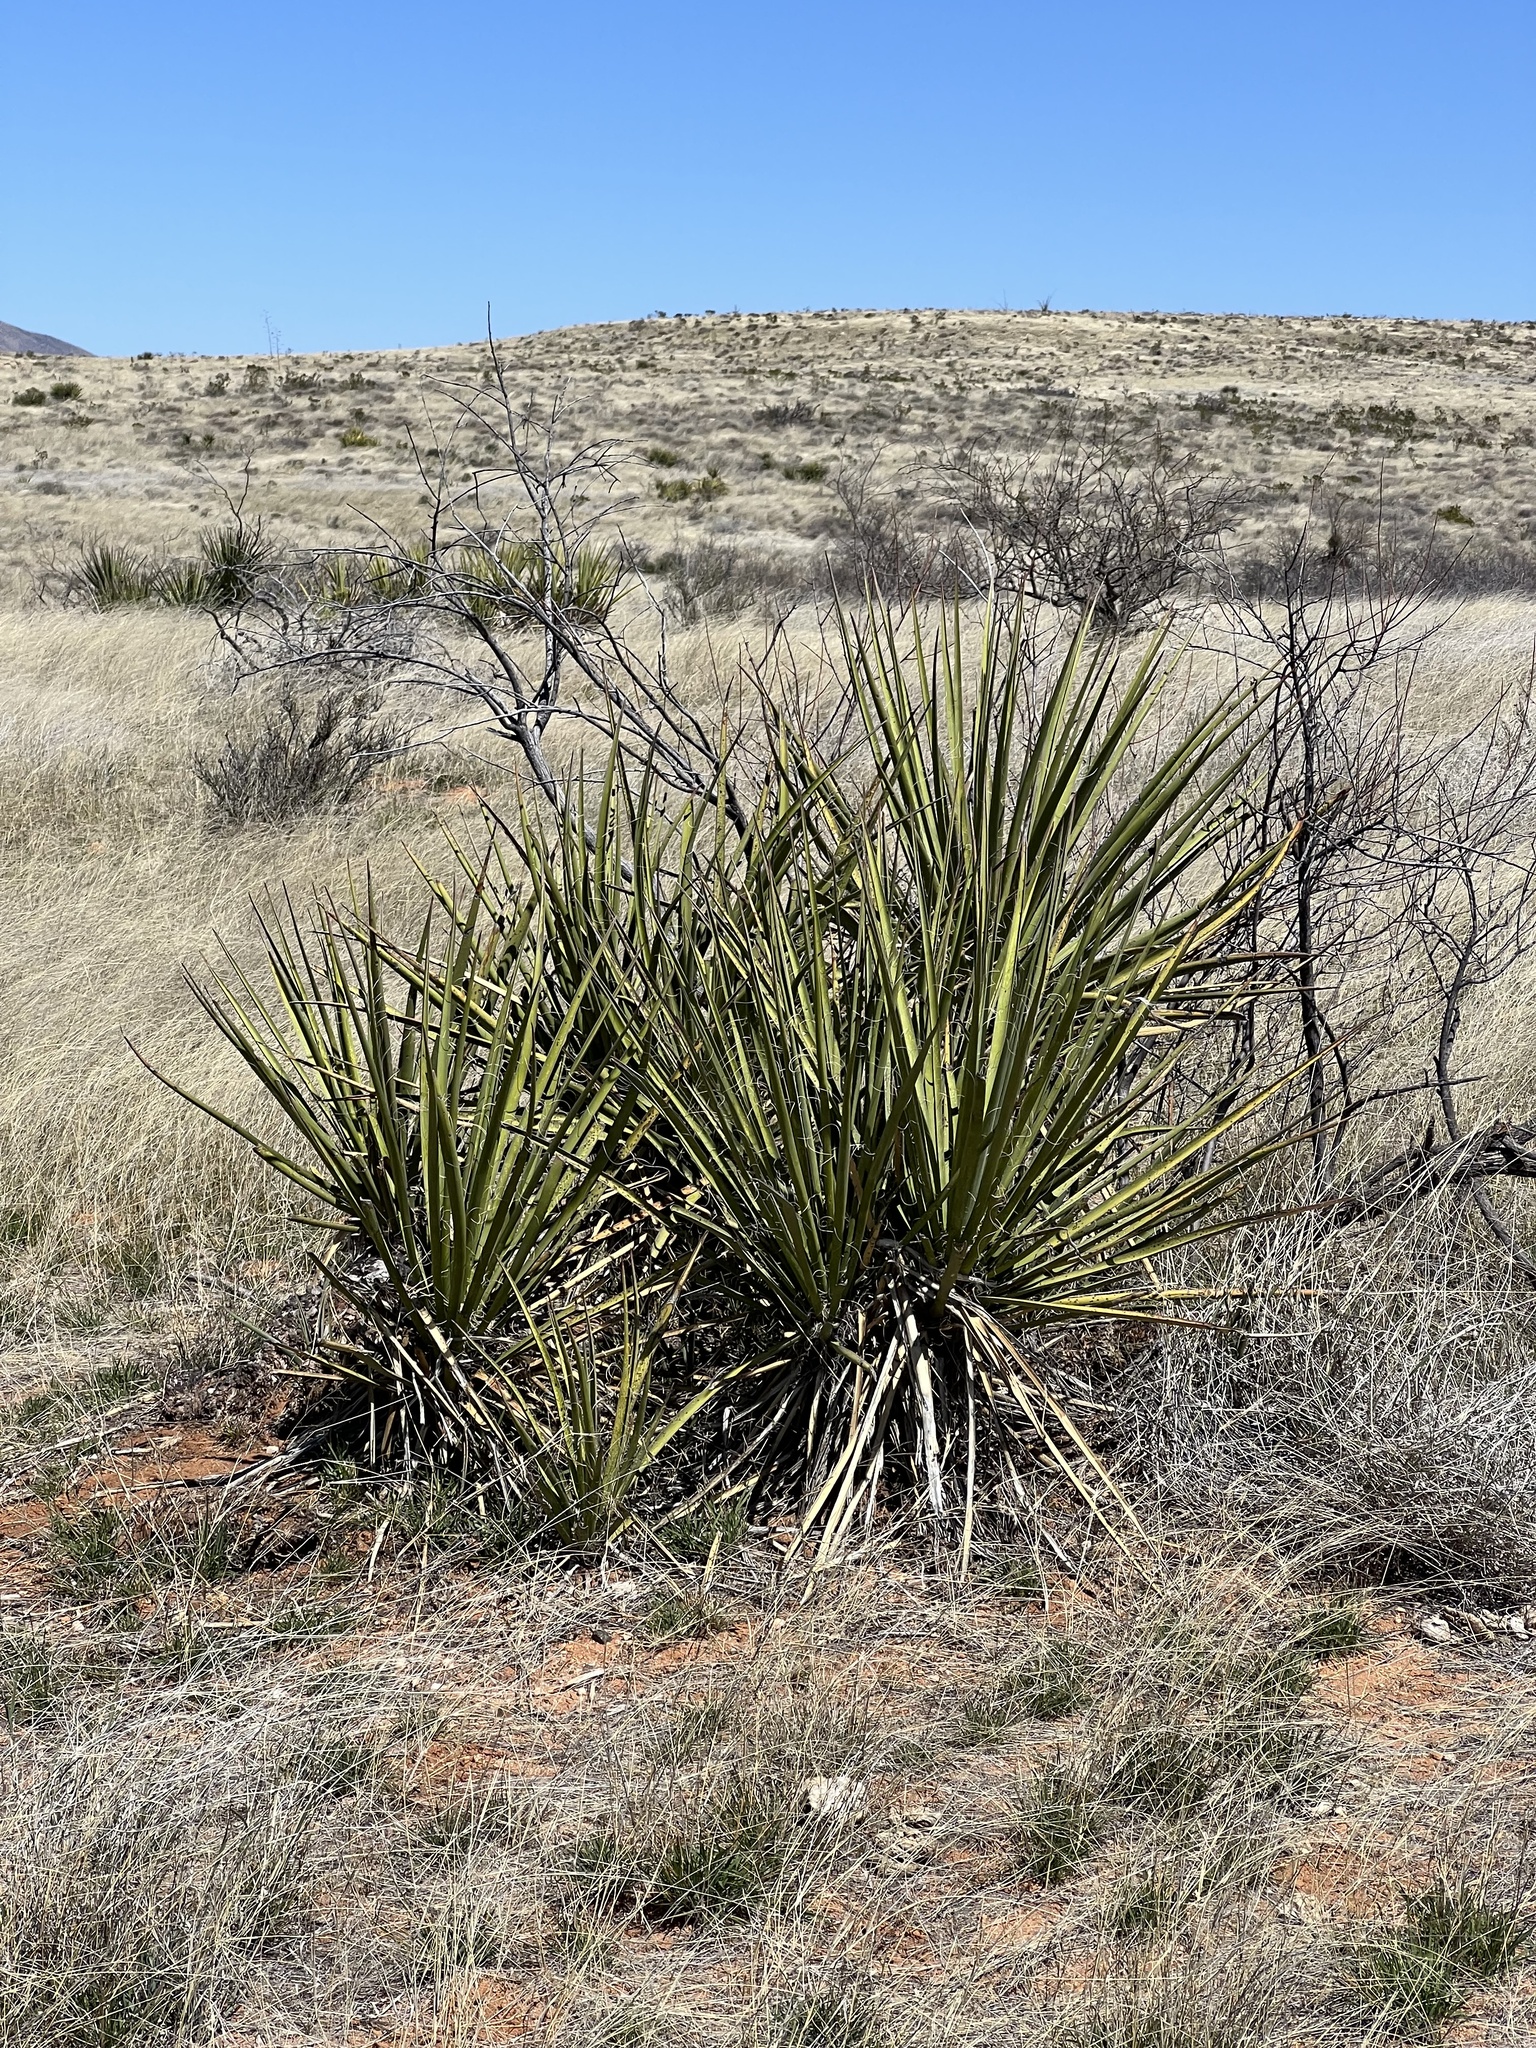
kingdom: Plantae
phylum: Tracheophyta
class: Liliopsida
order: Asparagales
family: Asparagaceae
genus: Yucca
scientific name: Yucca baccata
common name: Banana yucca
